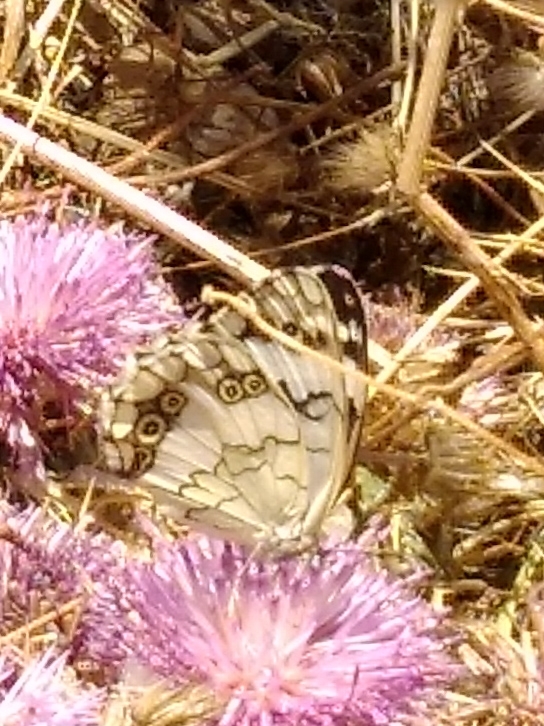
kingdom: Animalia
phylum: Arthropoda
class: Insecta
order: Lepidoptera
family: Nymphalidae
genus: Melanargia
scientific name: Melanargia larissa
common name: Balkan marbled white
